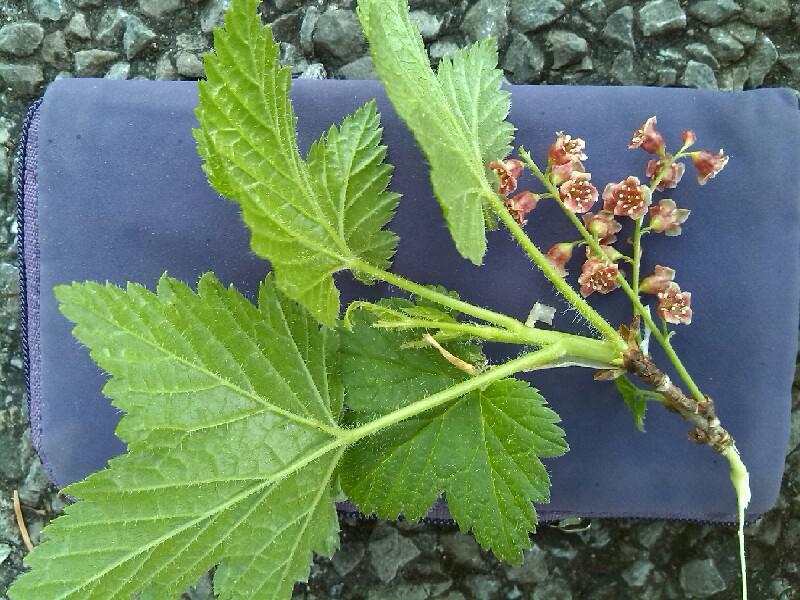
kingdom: Plantae
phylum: Tracheophyta
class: Magnoliopsida
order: Saxifragales
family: Grossulariaceae
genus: Ribes
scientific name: Ribes petraeum
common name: Rock currant
